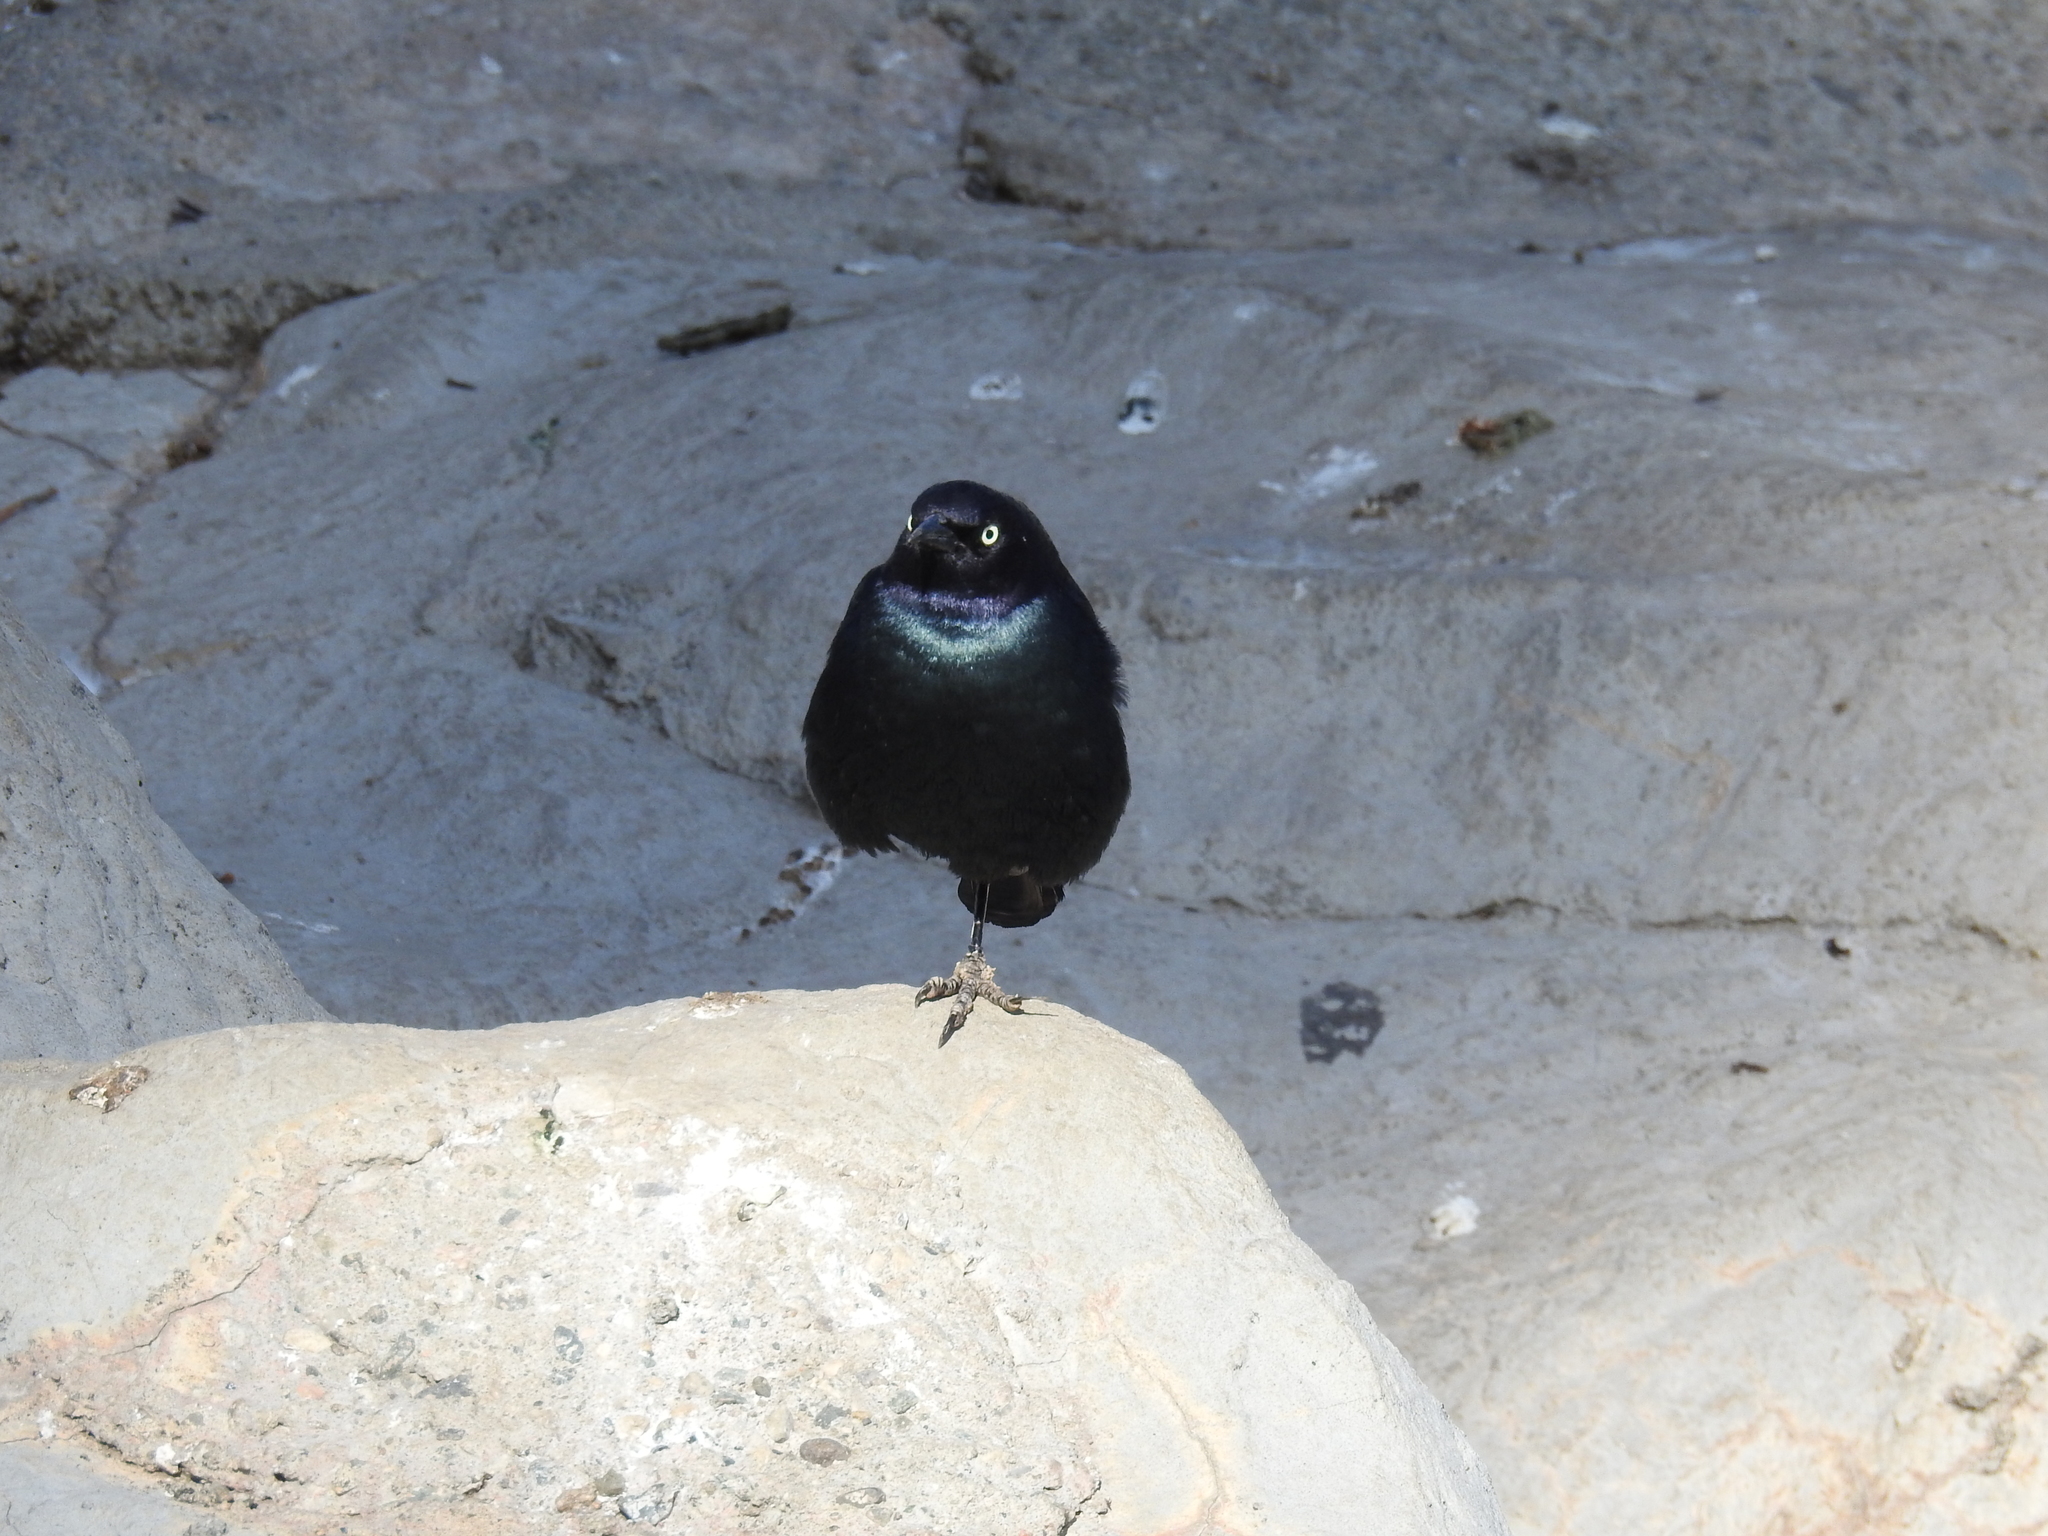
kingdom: Animalia
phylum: Chordata
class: Aves
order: Passeriformes
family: Icteridae
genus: Euphagus
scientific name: Euphagus cyanocephalus
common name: Brewer's blackbird
